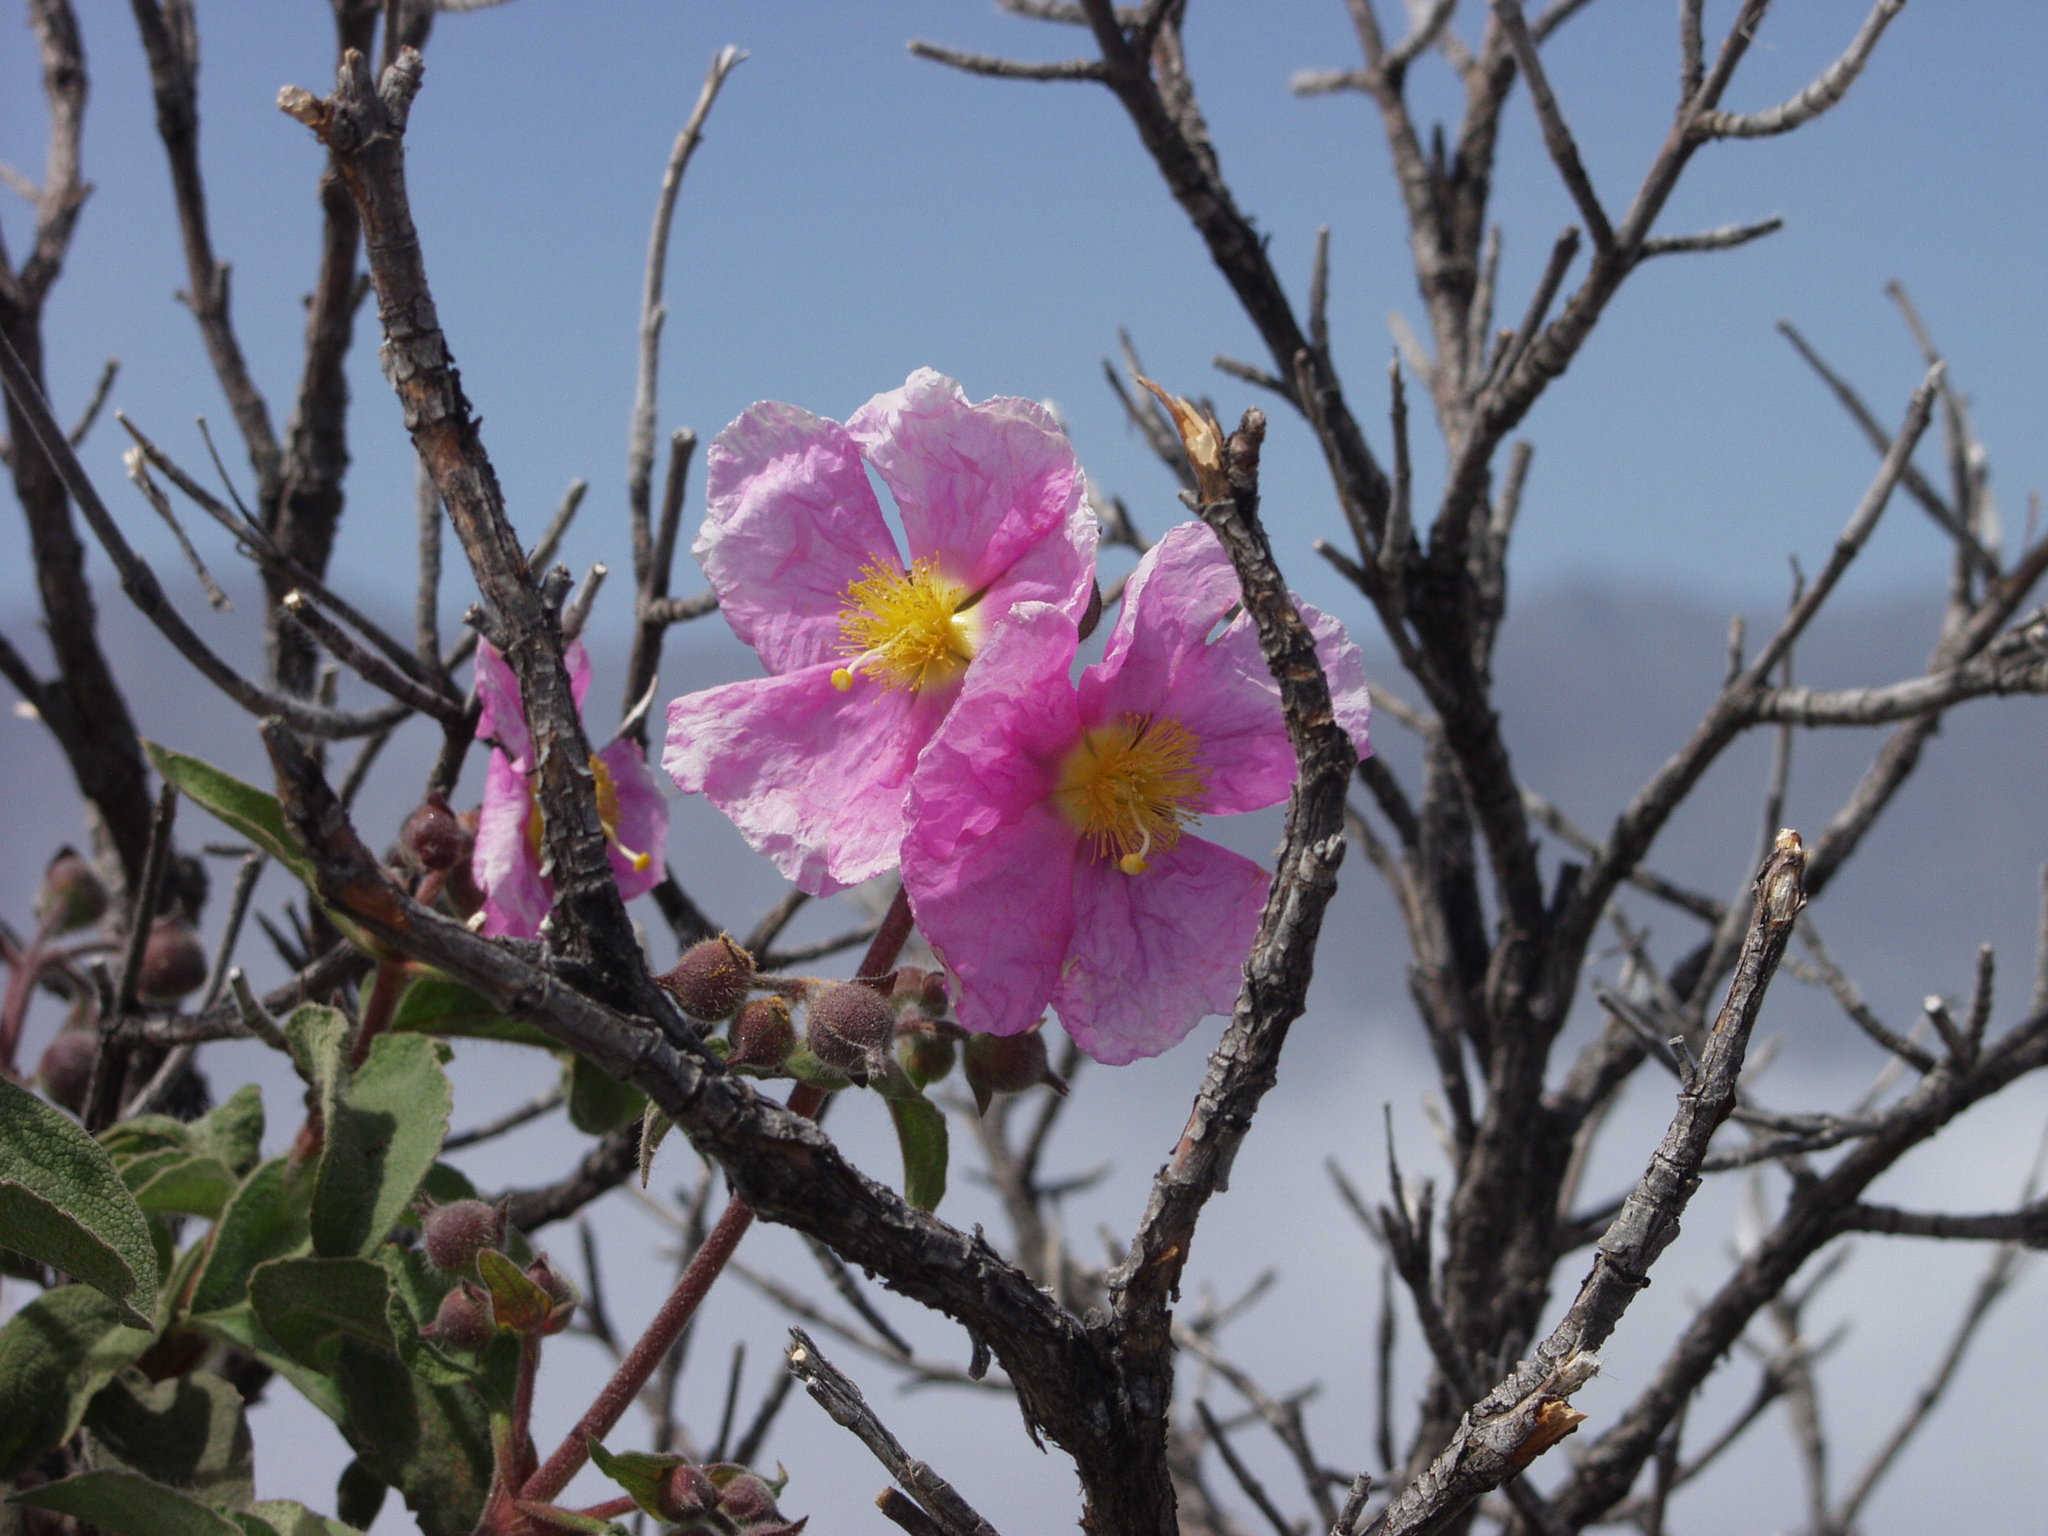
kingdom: Plantae
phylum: Tracheophyta
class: Magnoliopsida
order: Malvales
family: Cistaceae
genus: Cistus
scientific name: Cistus symphytifolius
